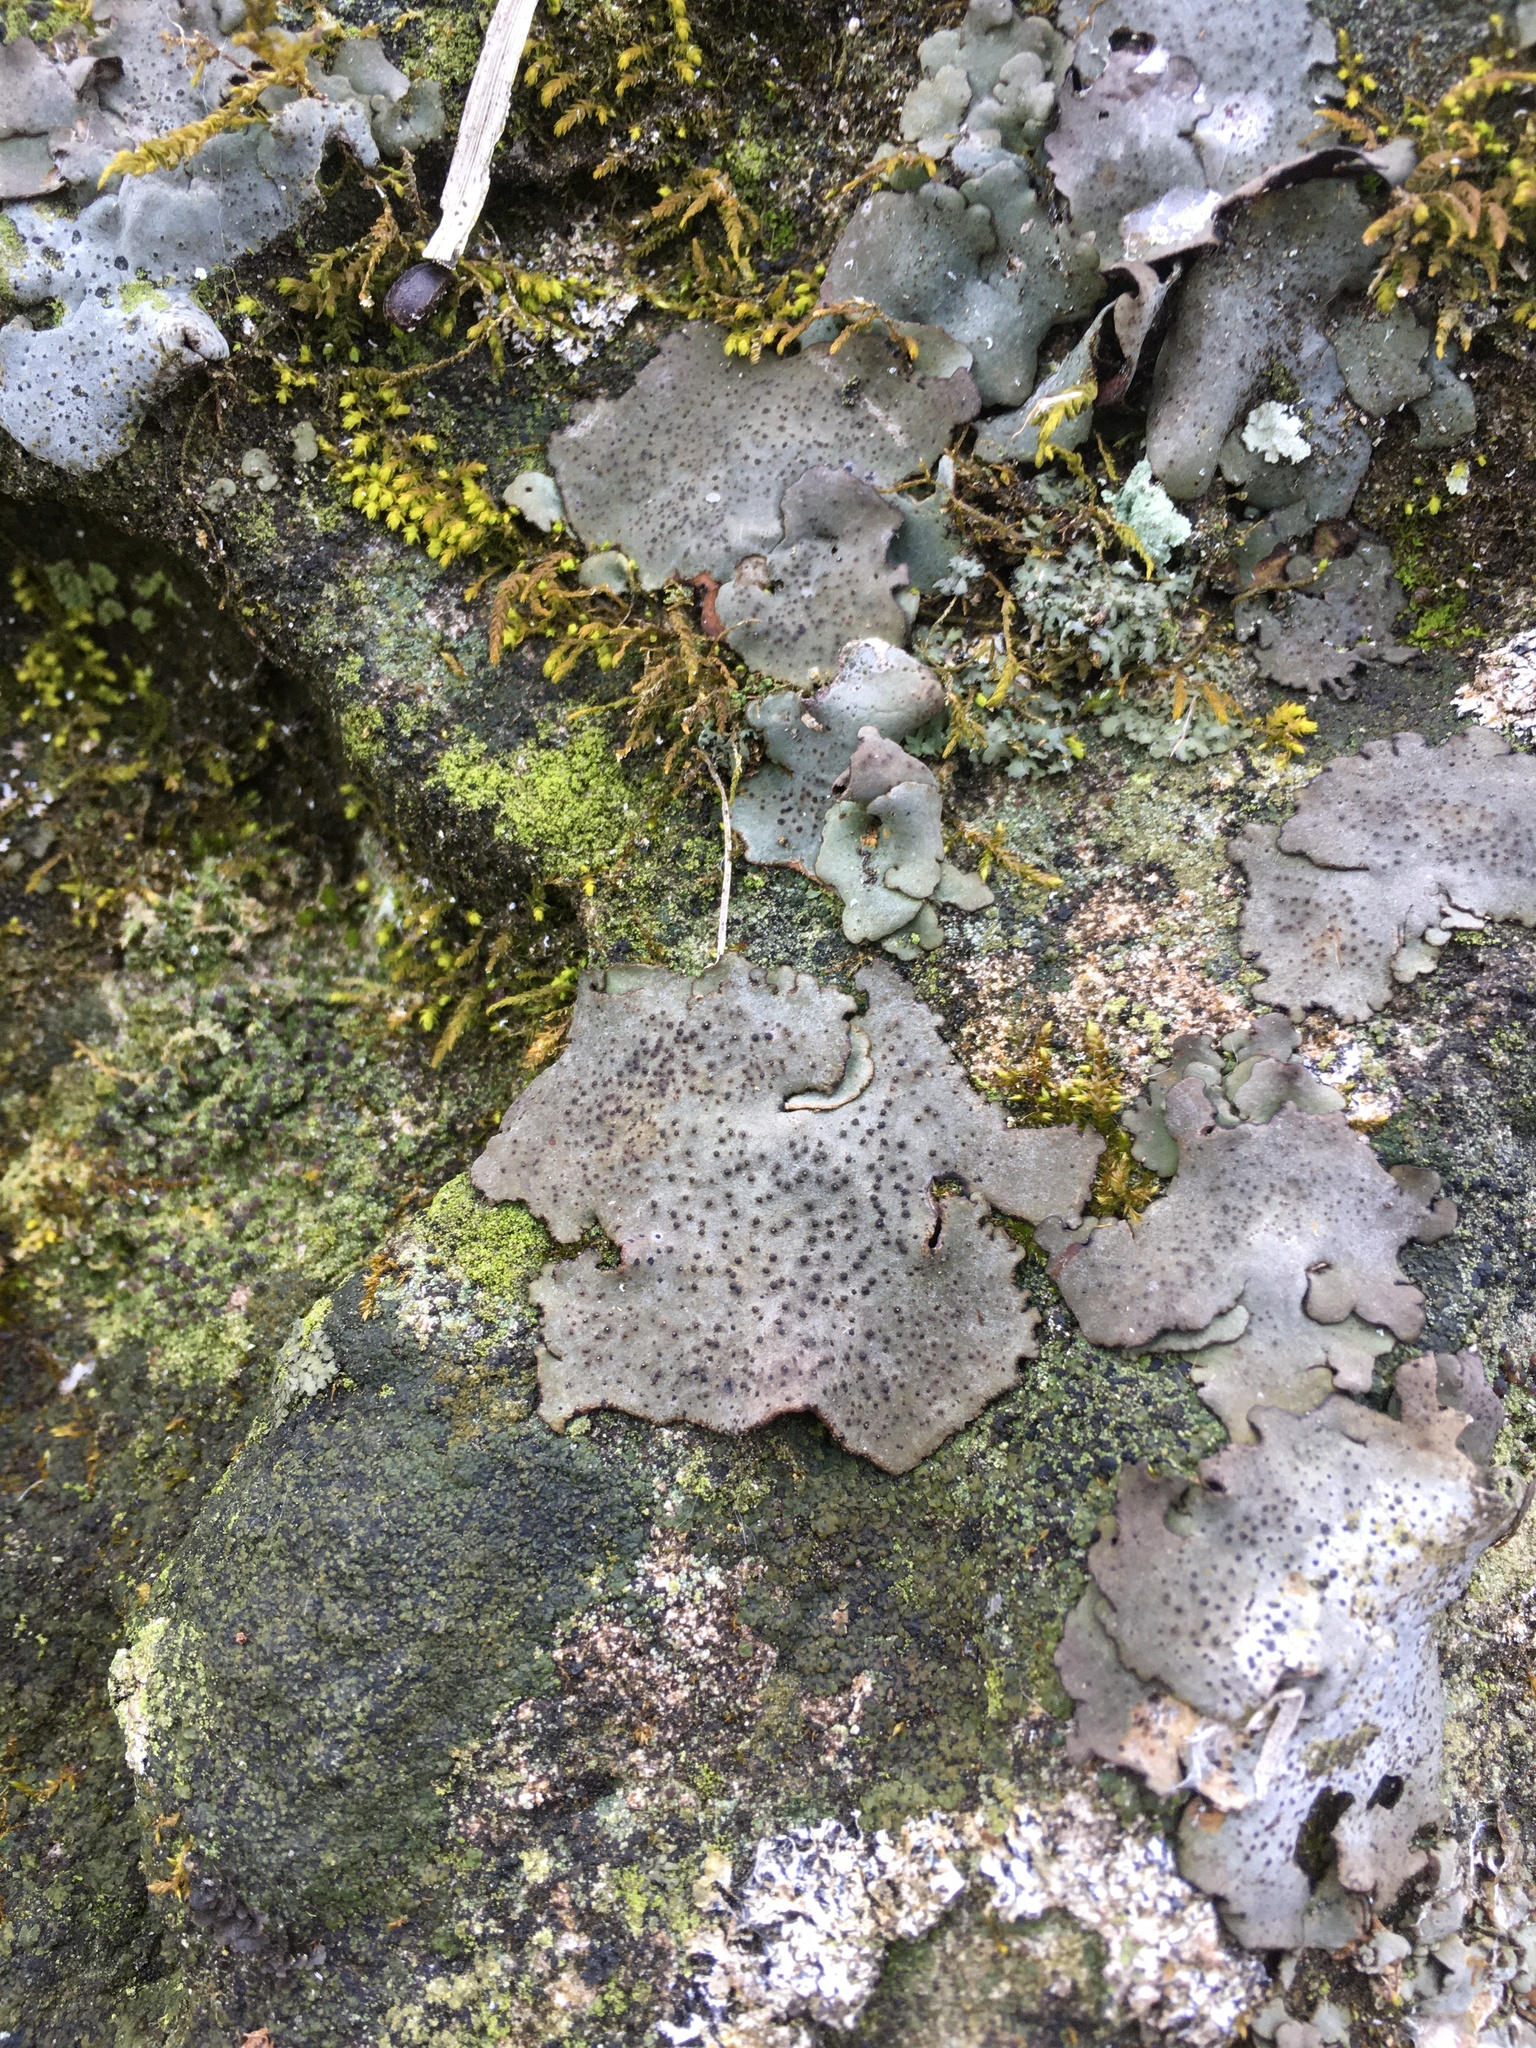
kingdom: Fungi
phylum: Ascomycota
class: Eurotiomycetes
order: Verrucariales
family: Verrucariaceae
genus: Dermatocarpon
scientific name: Dermatocarpon muhlenbergii
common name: Muhlenberg's stippleback lichen
